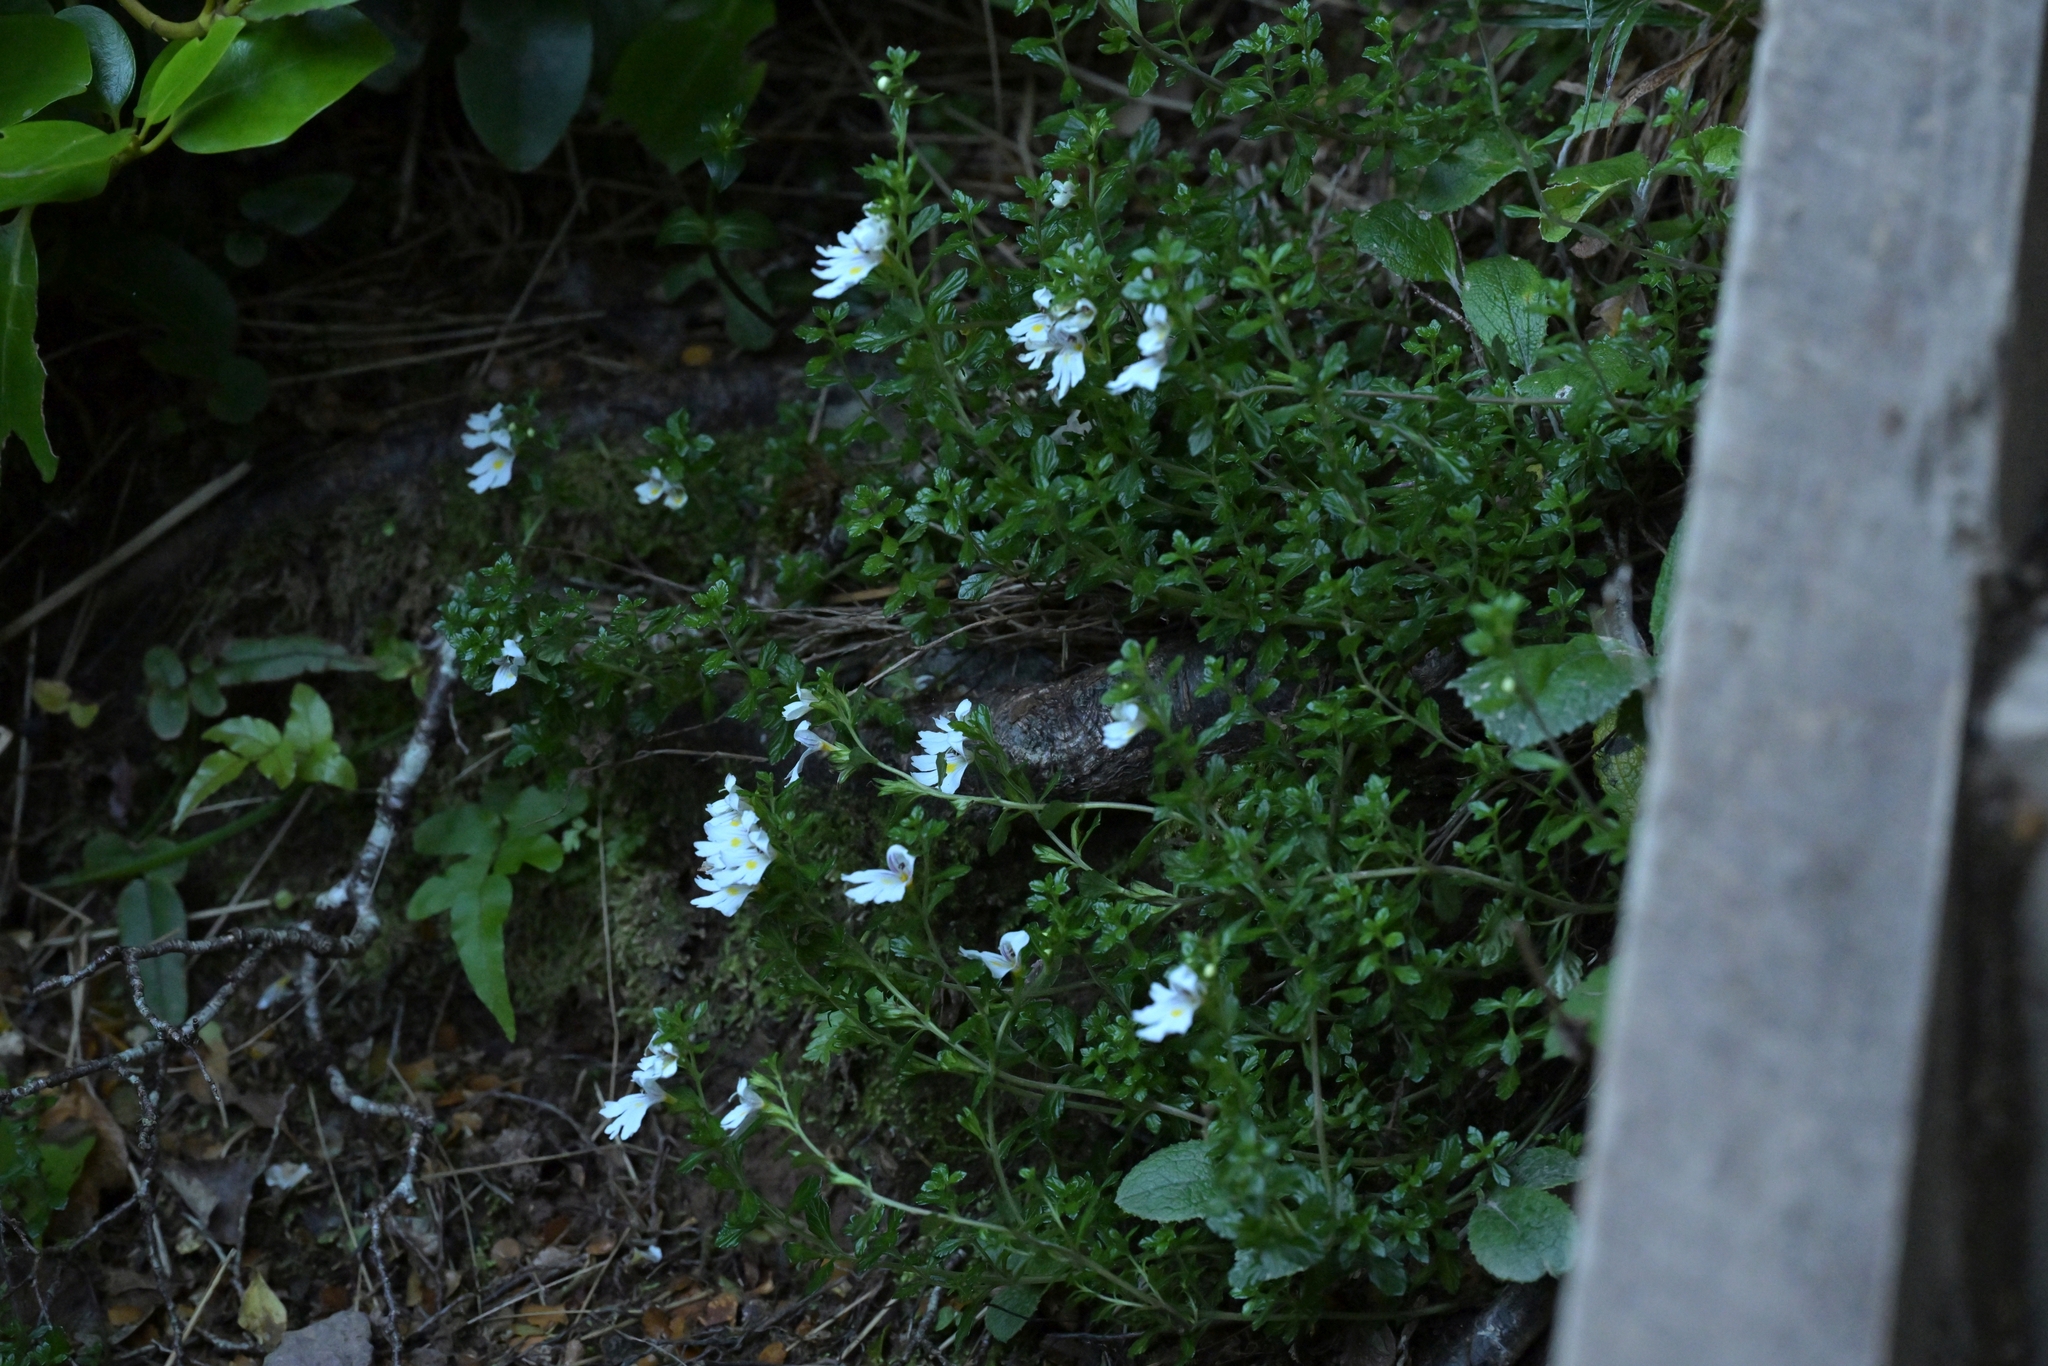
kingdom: Plantae
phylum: Tracheophyta
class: Magnoliopsida
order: Lamiales
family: Orobanchaceae
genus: Euphrasia
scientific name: Euphrasia cuneata
